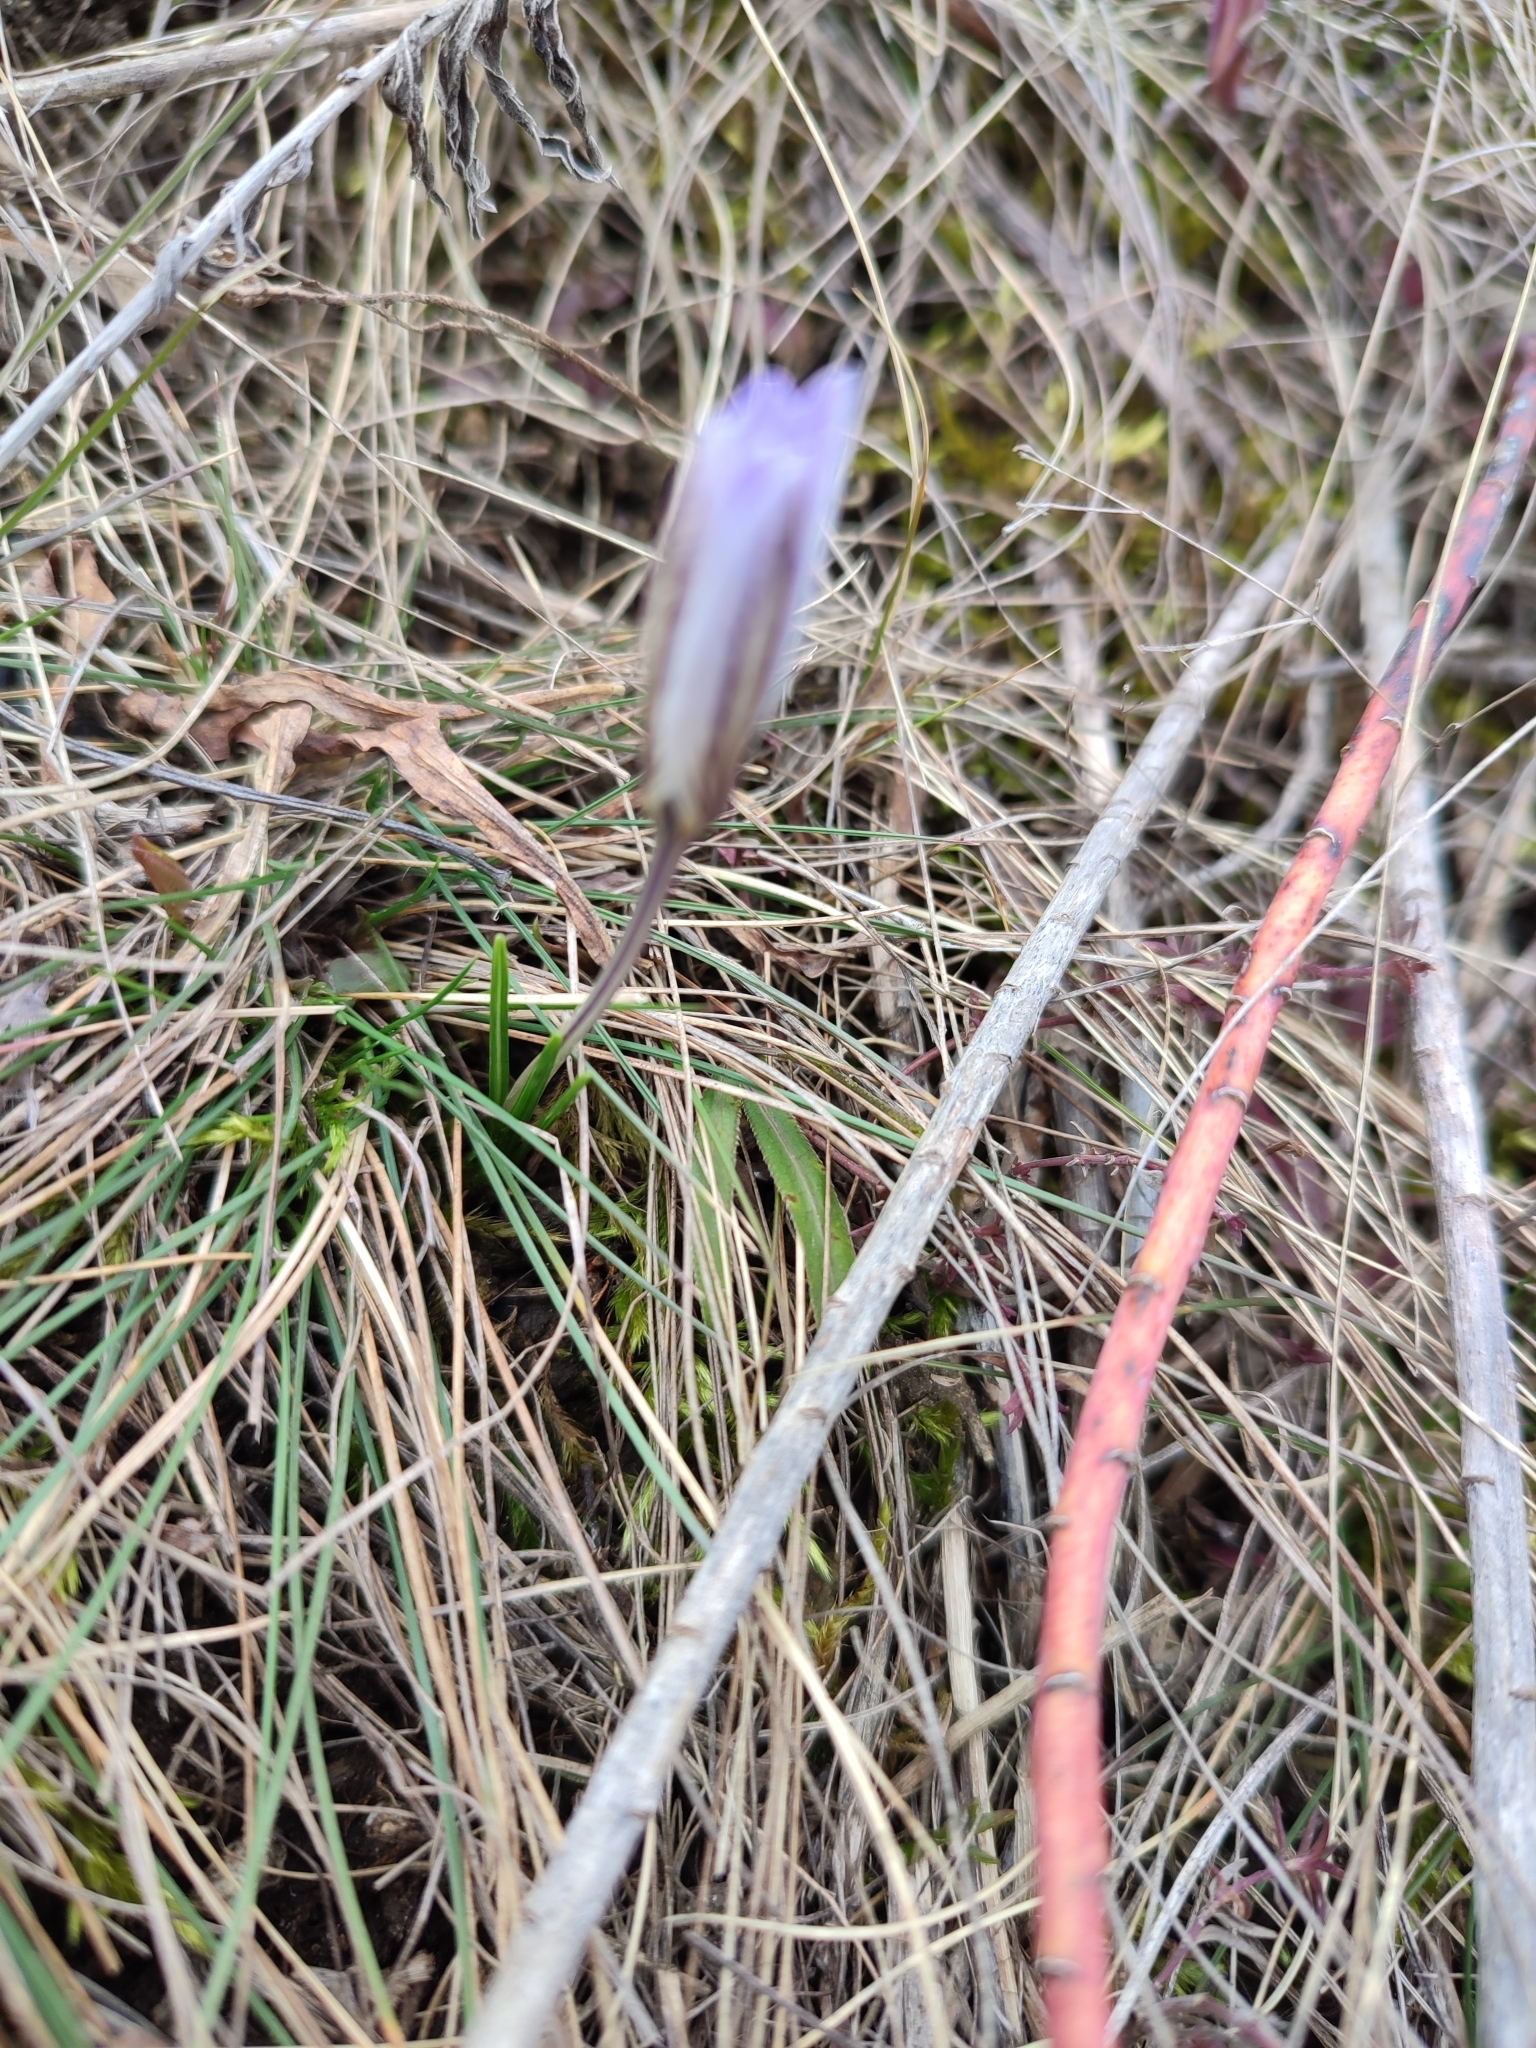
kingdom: Plantae
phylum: Tracheophyta
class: Liliopsida
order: Asparagales
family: Iridaceae
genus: Crocus
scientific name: Crocus reticulatus
